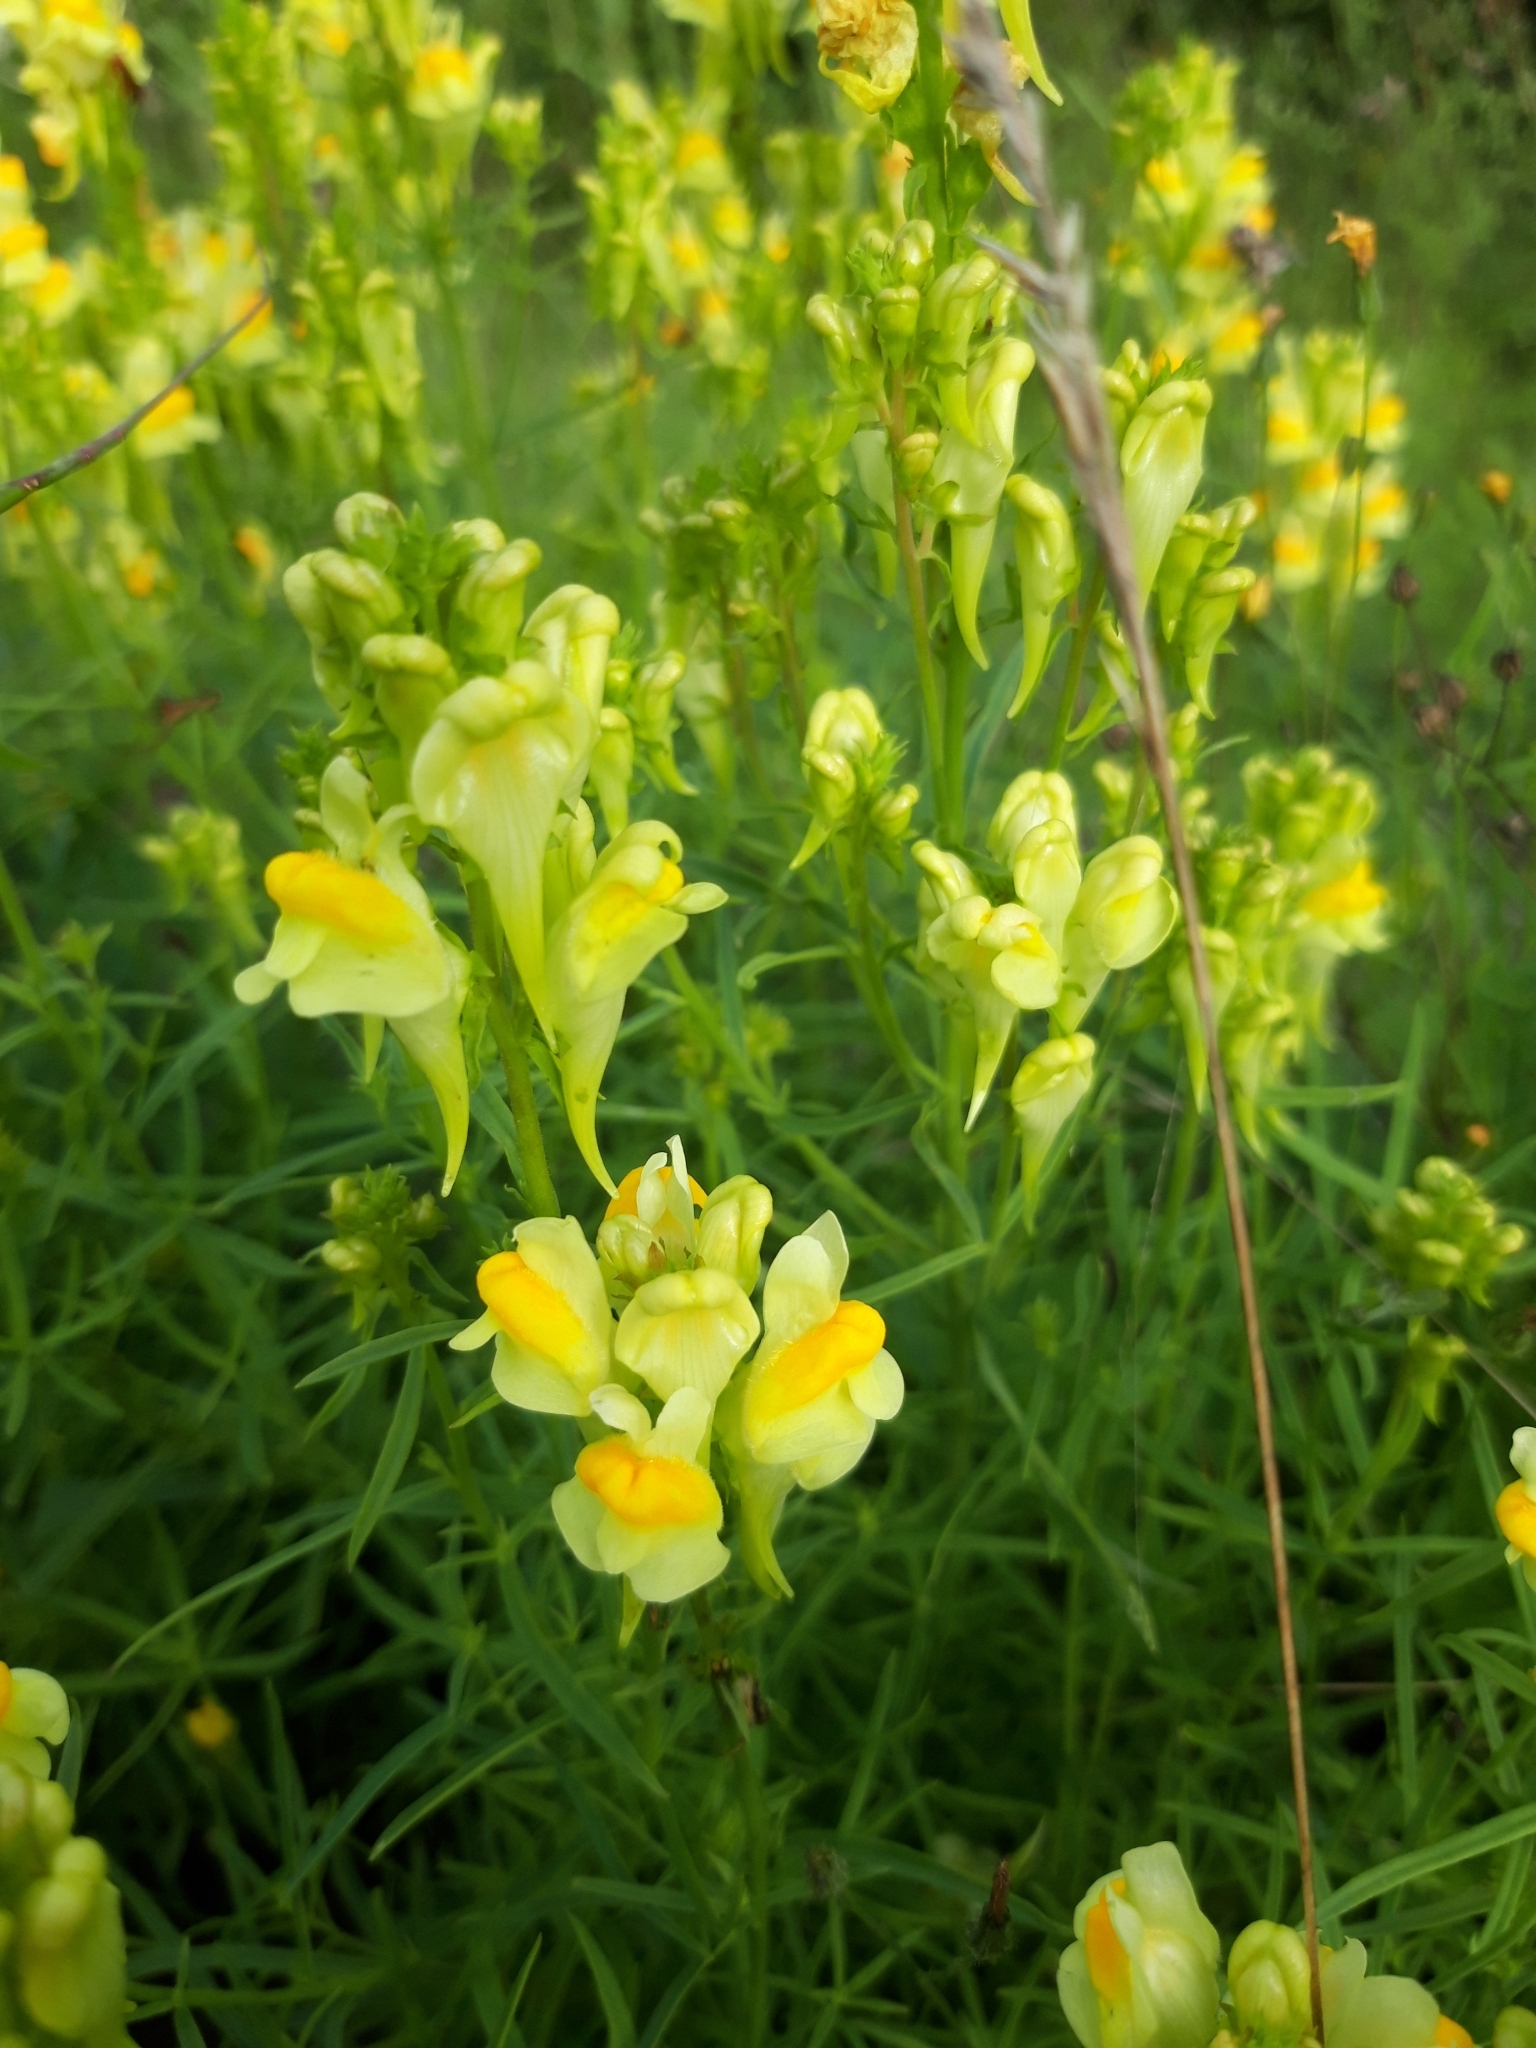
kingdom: Plantae
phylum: Tracheophyta
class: Magnoliopsida
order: Lamiales
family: Plantaginaceae
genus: Linaria
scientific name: Linaria vulgaris
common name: Butter and eggs
